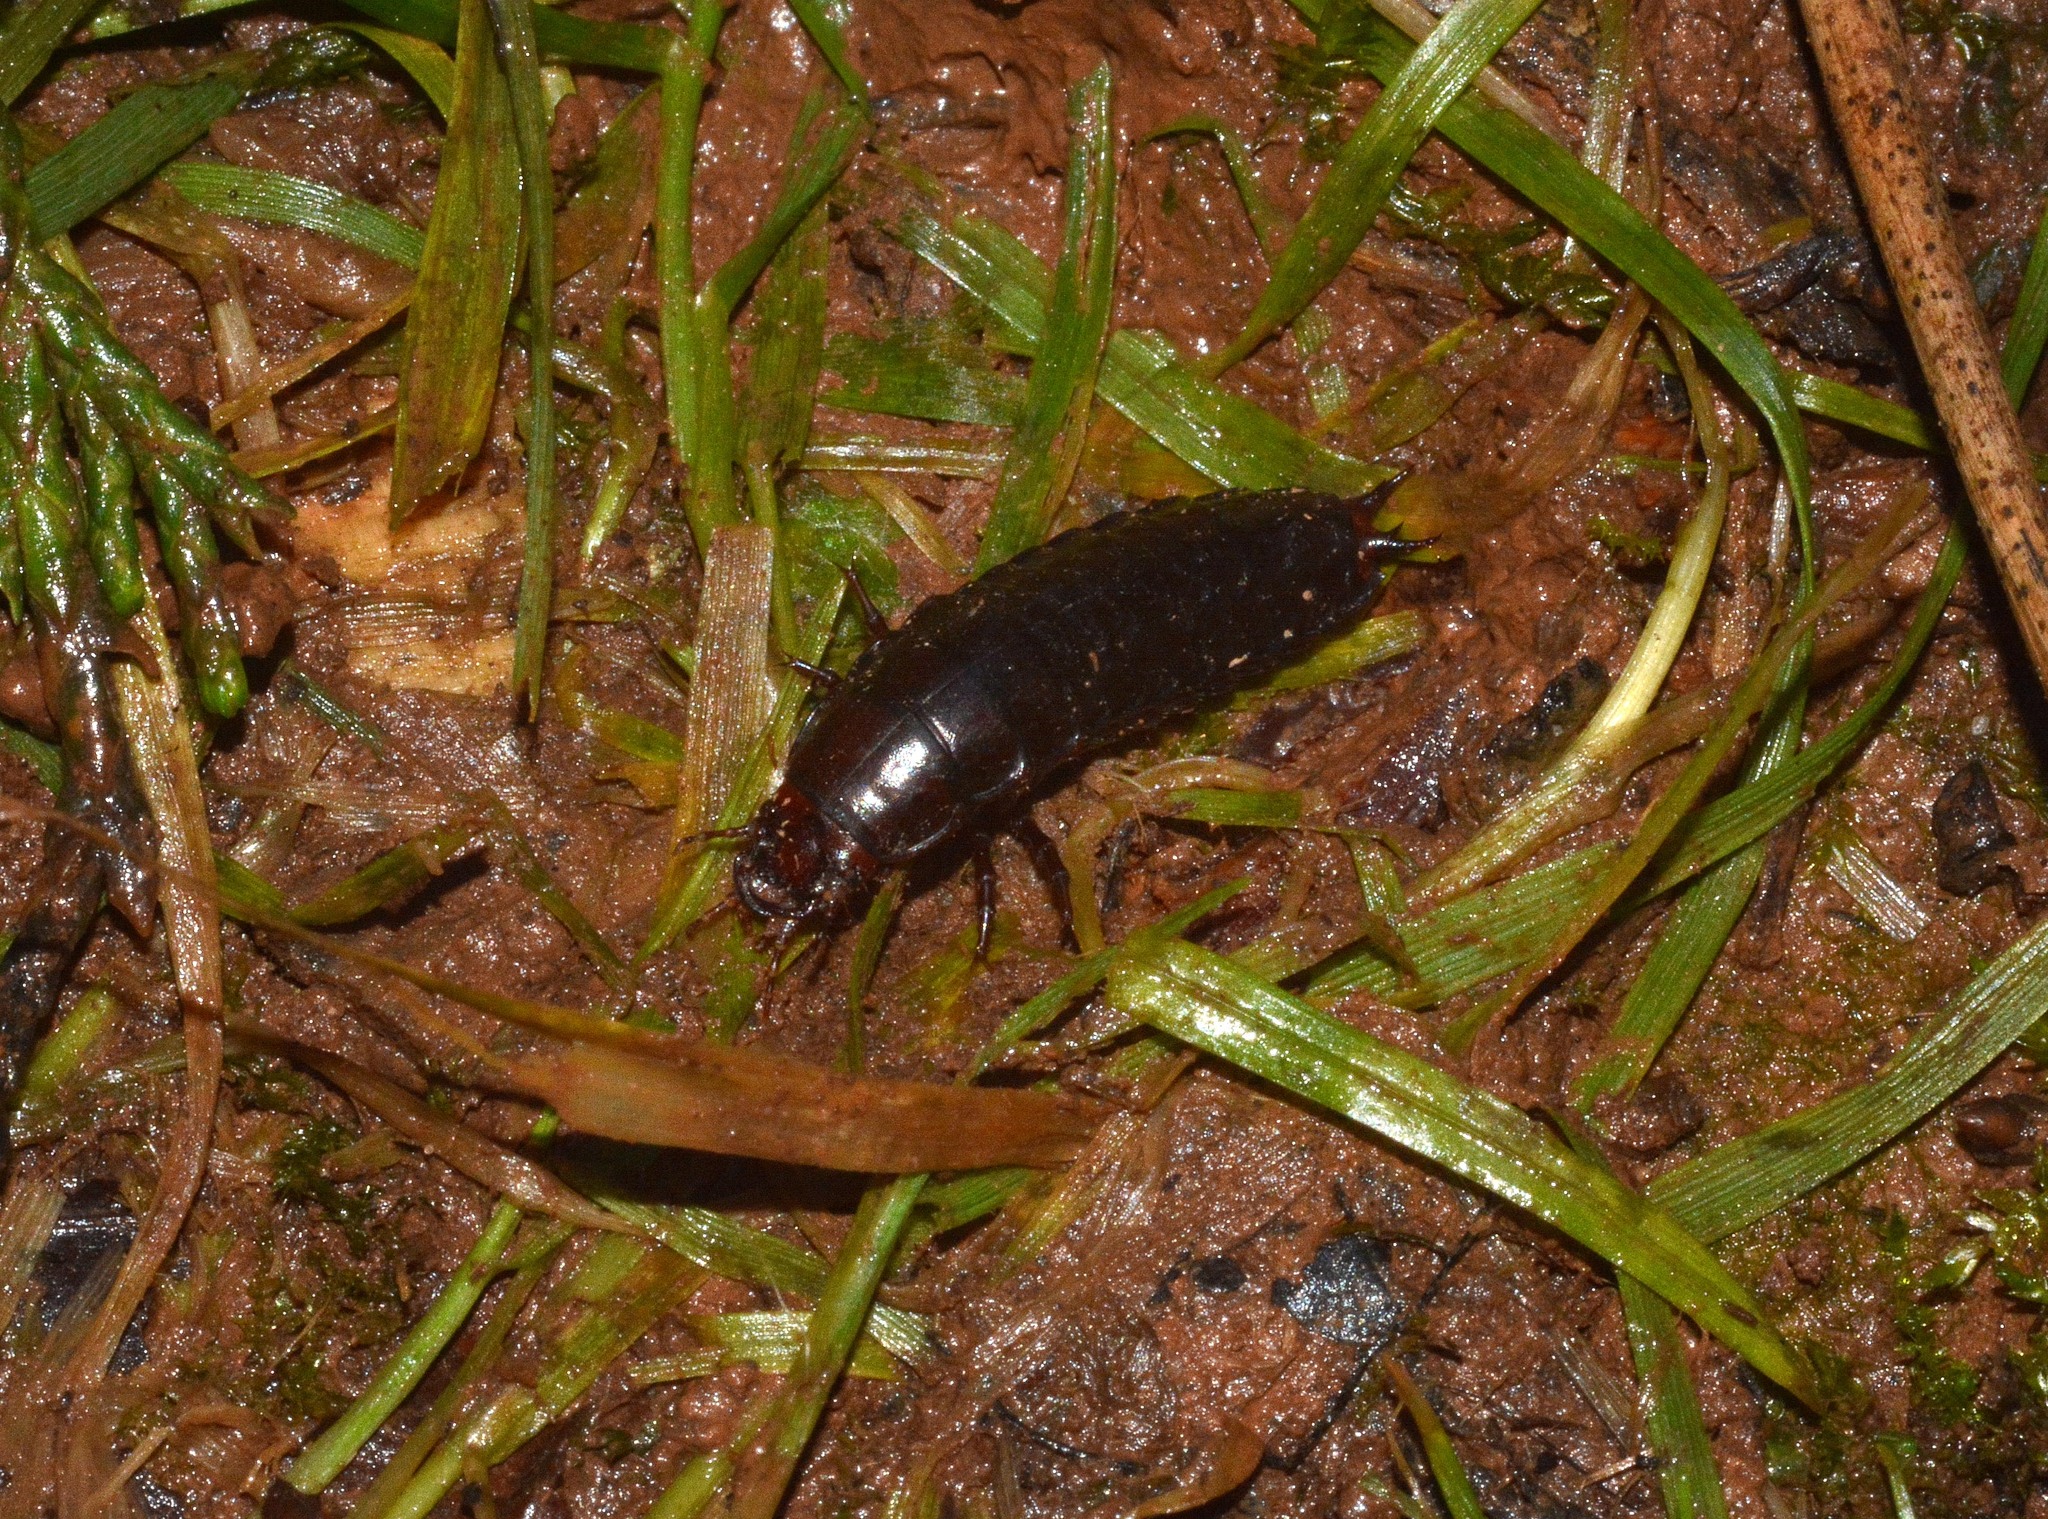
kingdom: Animalia
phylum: Arthropoda
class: Insecta
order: Coleoptera
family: Carabidae
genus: Carabus
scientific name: Carabus violaceus
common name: Violet ground beetle
